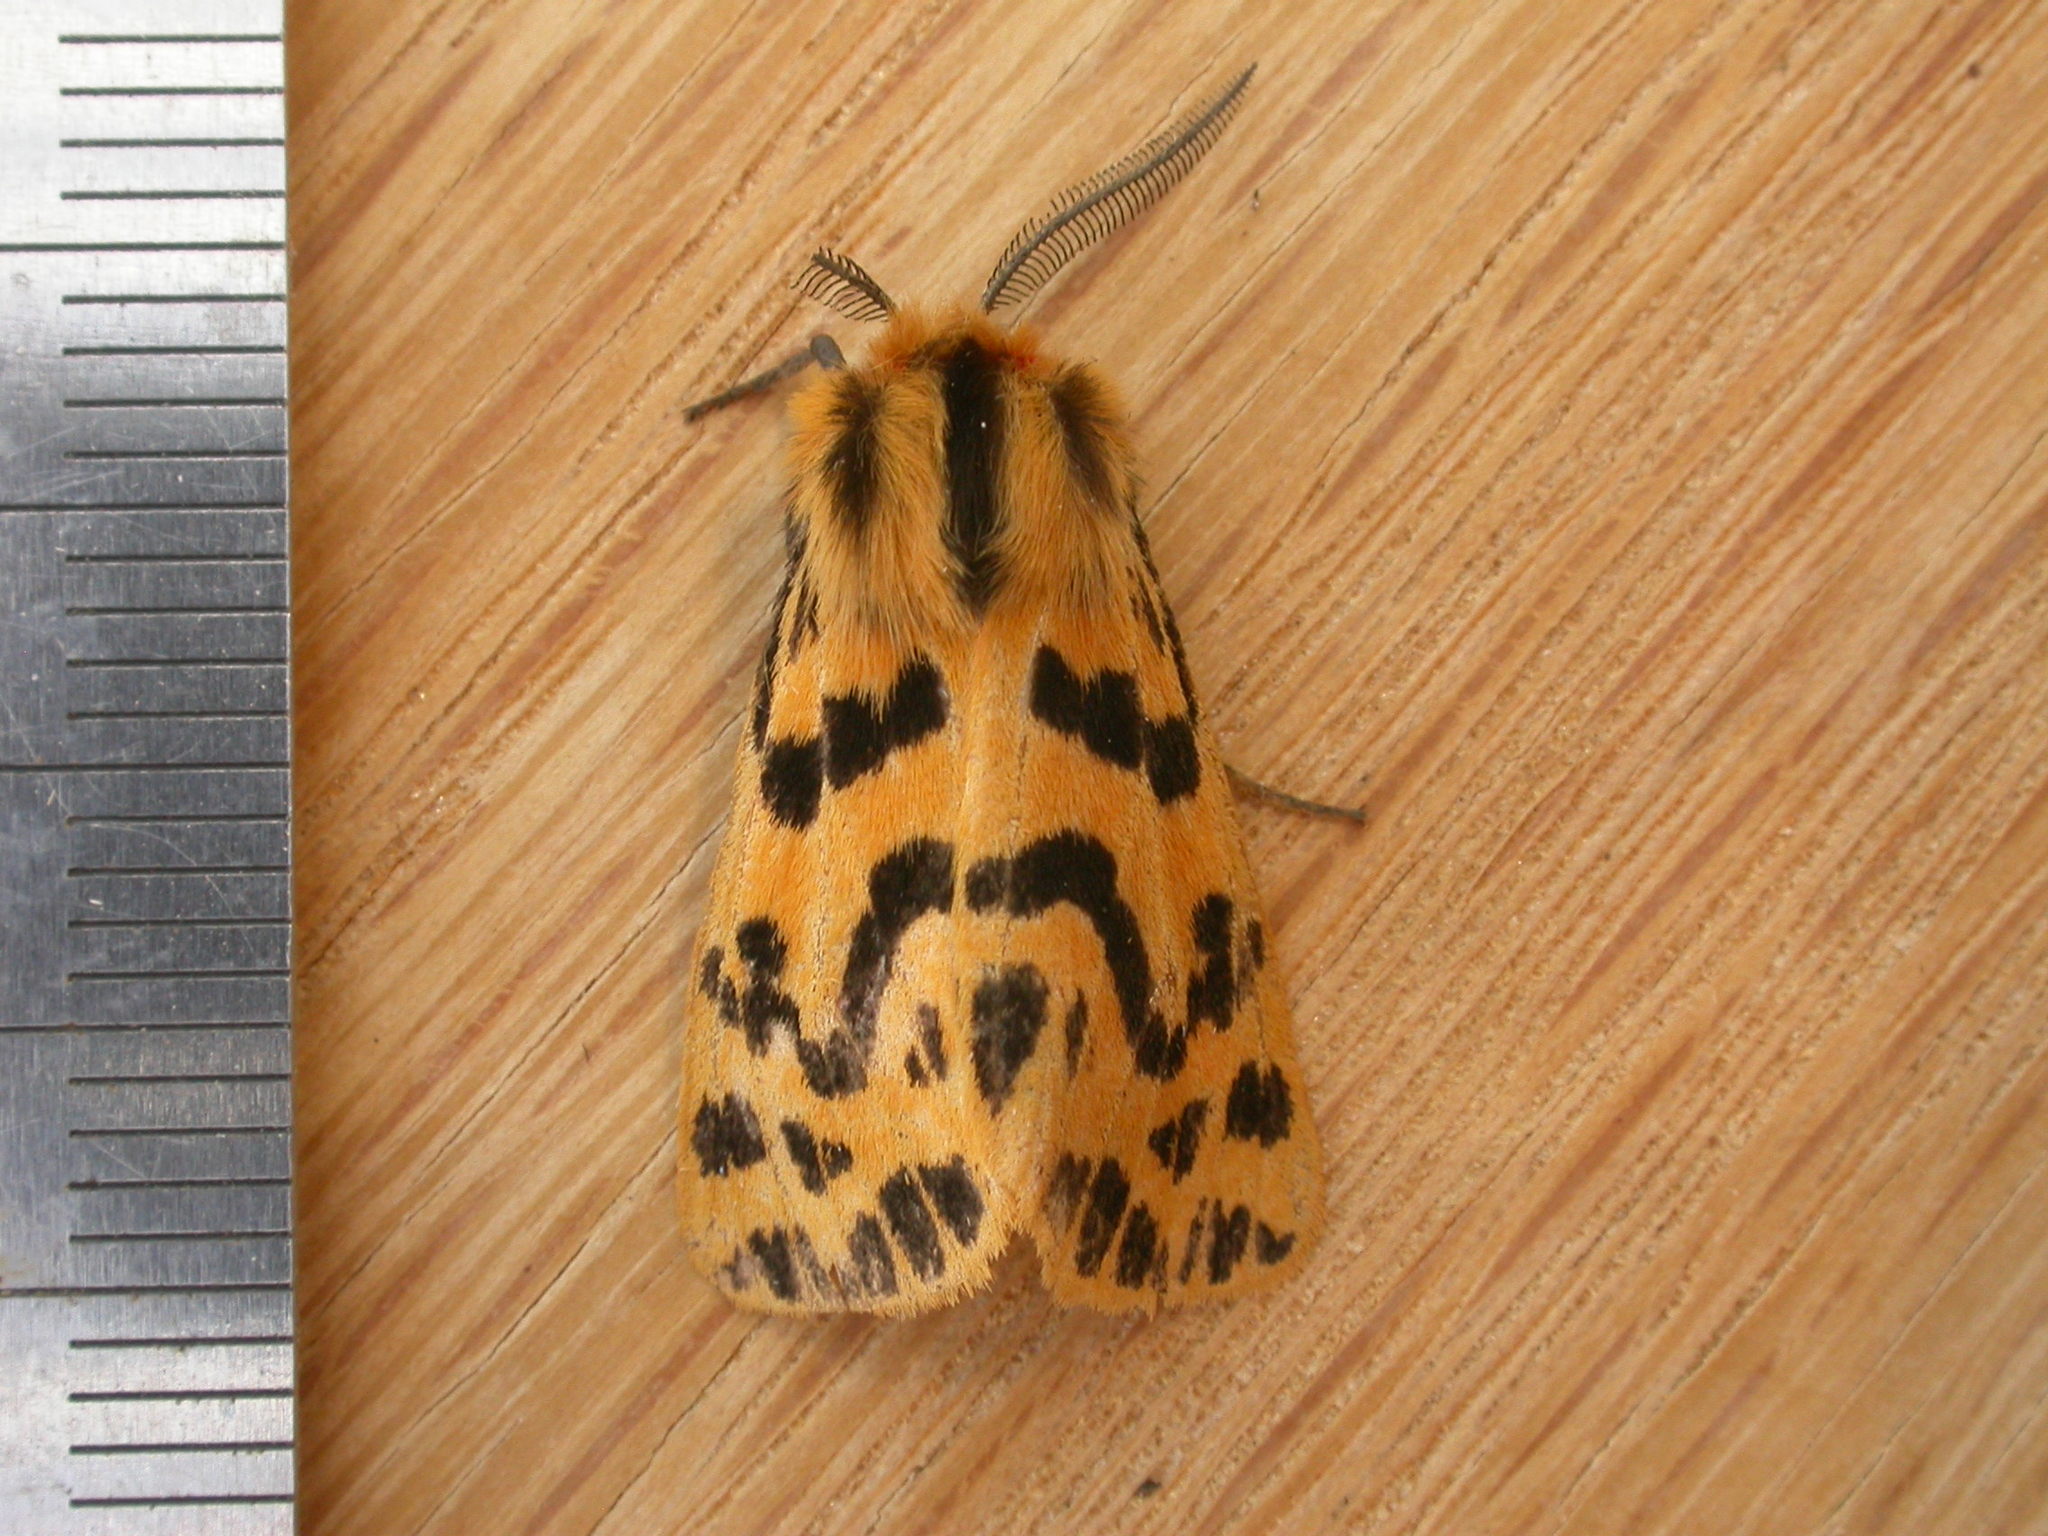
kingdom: Animalia
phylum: Arthropoda
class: Insecta
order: Lepidoptera
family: Erebidae
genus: Ardices
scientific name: Ardices curvata
